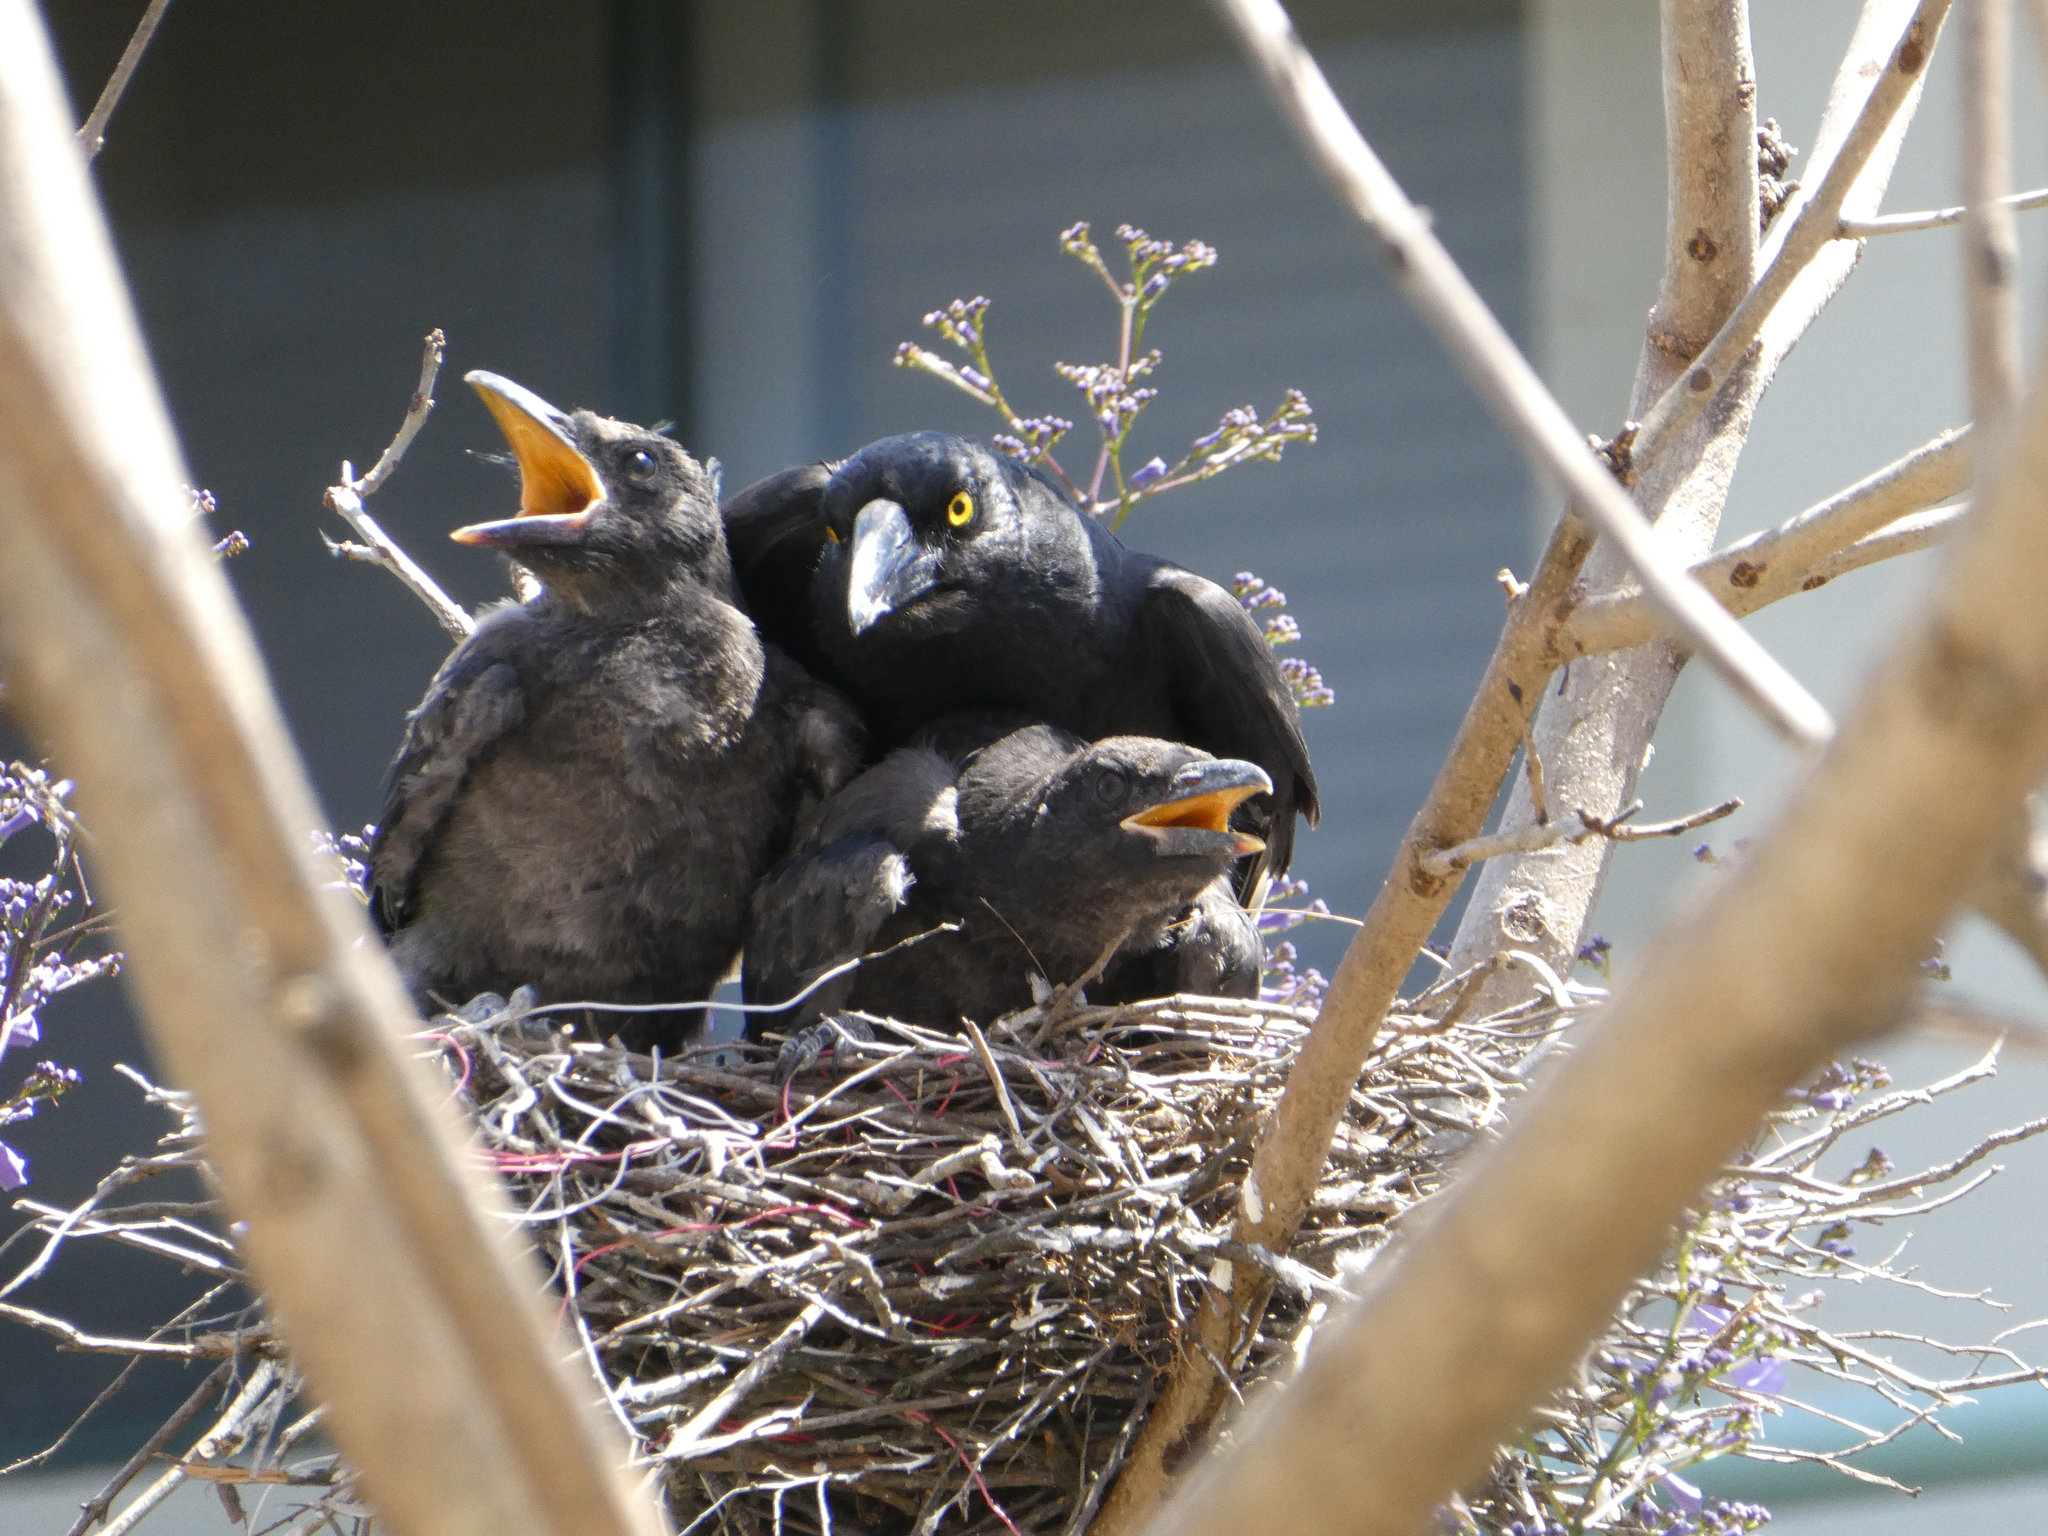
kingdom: Animalia
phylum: Chordata
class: Aves
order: Passeriformes
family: Cracticidae
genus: Strepera
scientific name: Strepera graculina
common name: Pied currawong
